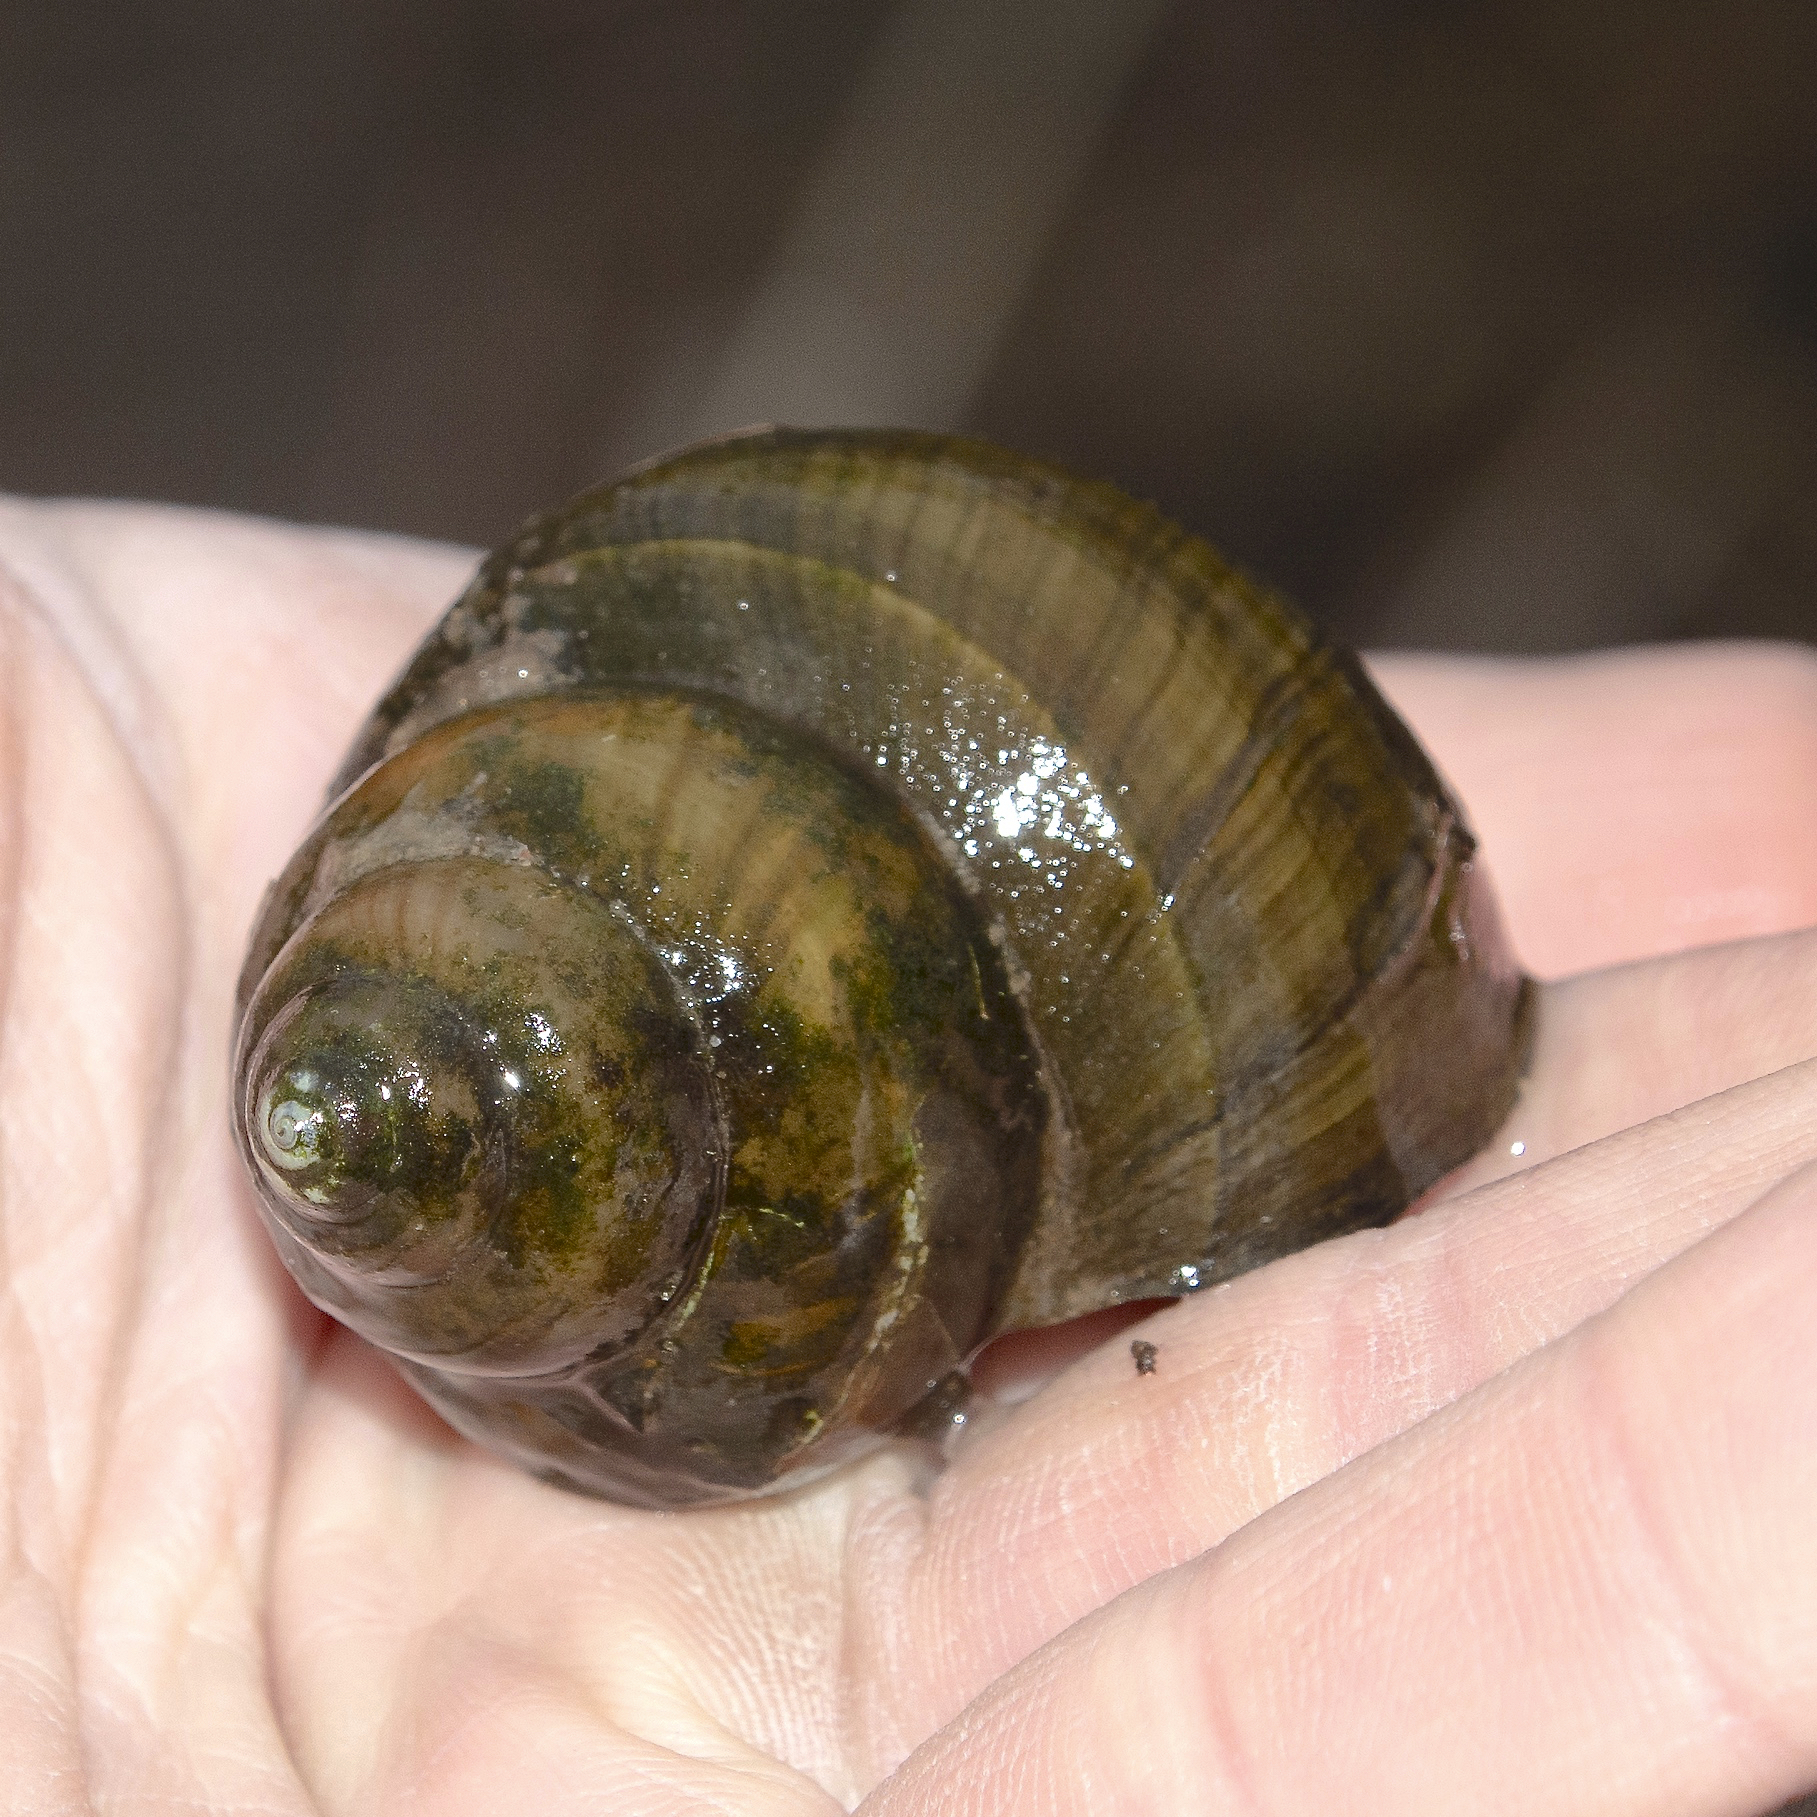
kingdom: Animalia
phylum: Mollusca
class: Gastropoda
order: Architaenioglossa
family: Viviparidae
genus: Cipangopaludina
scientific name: Cipangopaludina chinensis
